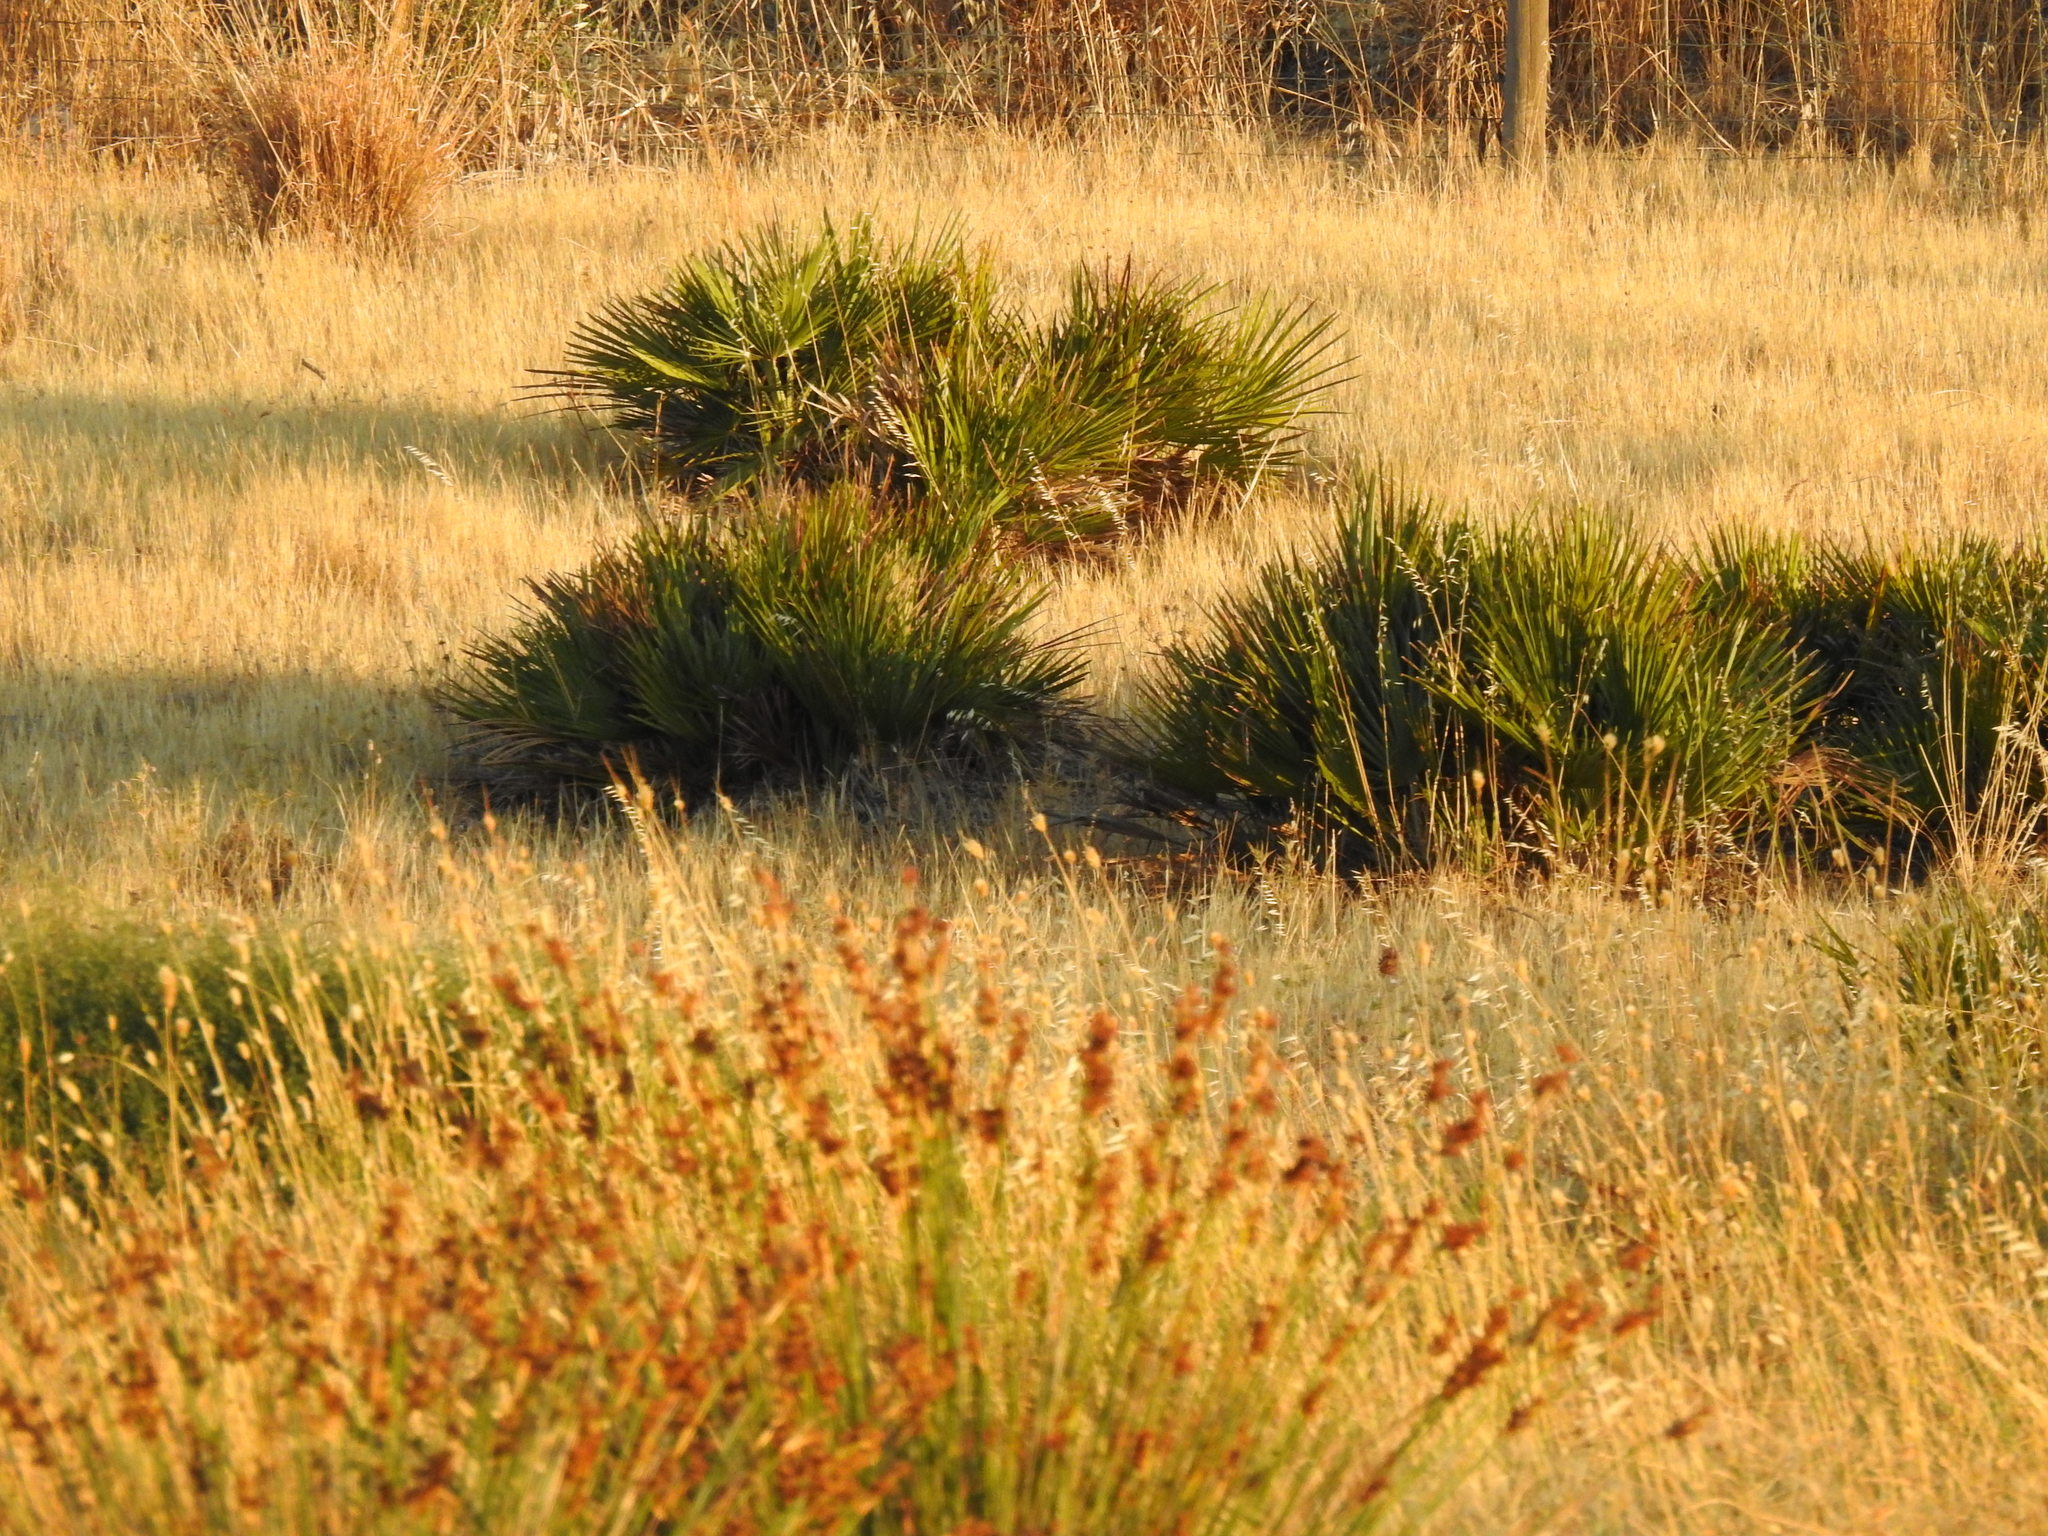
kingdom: Plantae
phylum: Tracheophyta
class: Liliopsida
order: Arecales
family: Arecaceae
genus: Chamaerops
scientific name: Chamaerops humilis
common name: Dwarf fan palm
